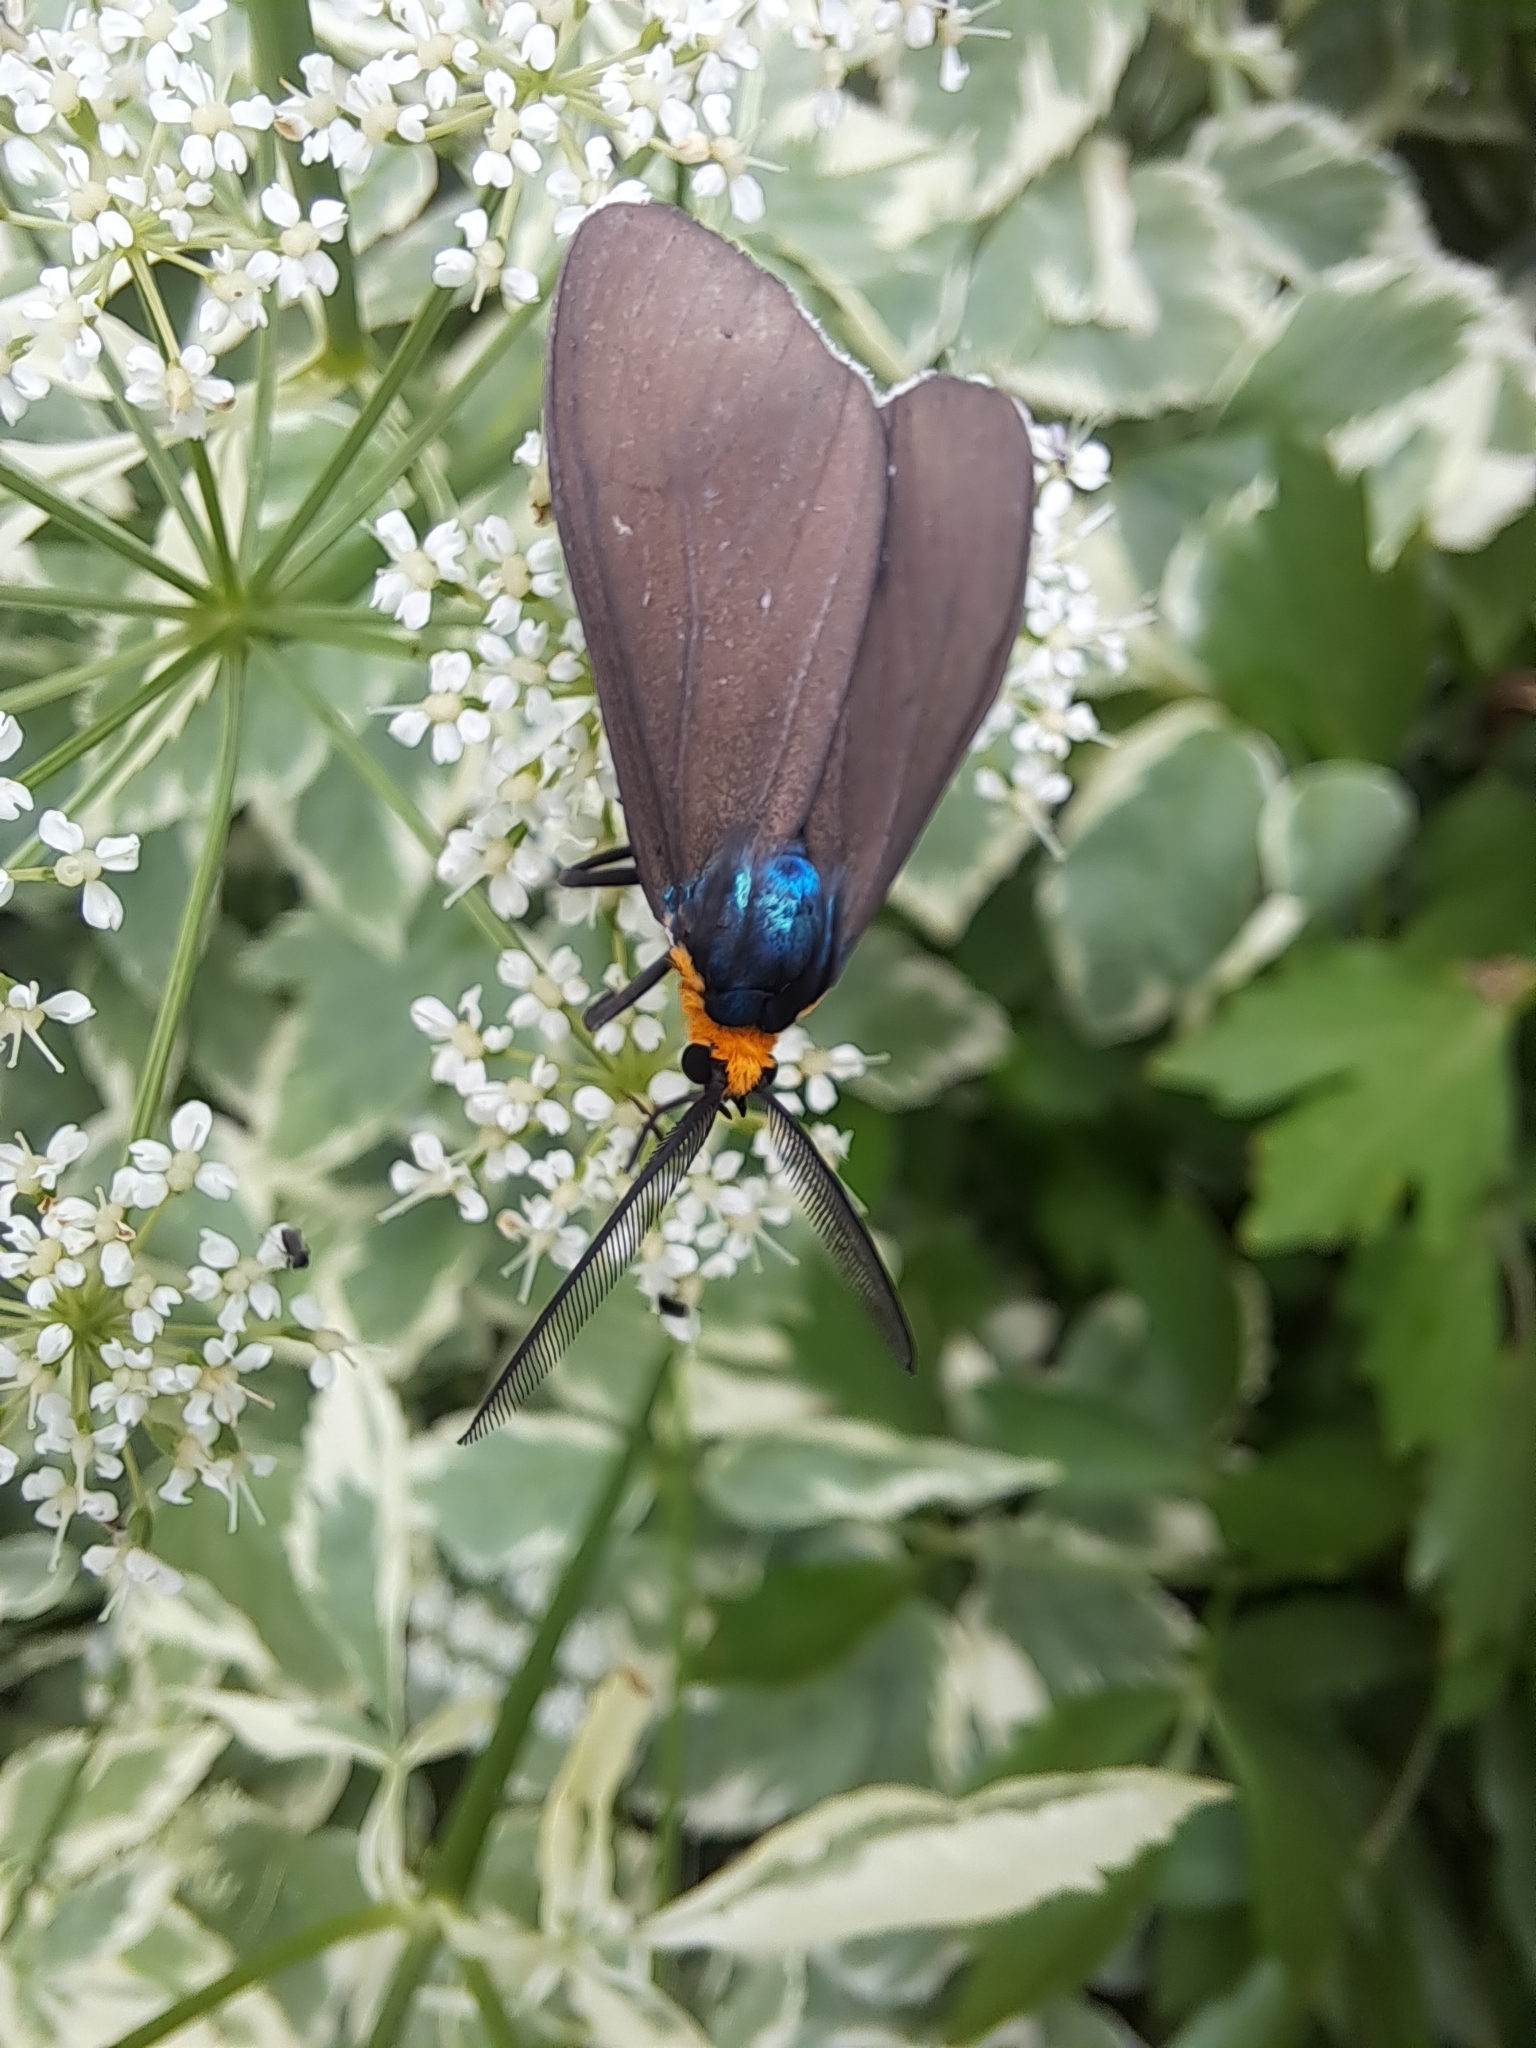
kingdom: Animalia
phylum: Arthropoda
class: Insecta
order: Lepidoptera
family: Erebidae
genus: Ctenucha
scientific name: Ctenucha virginica
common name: Virginia ctenucha moth
